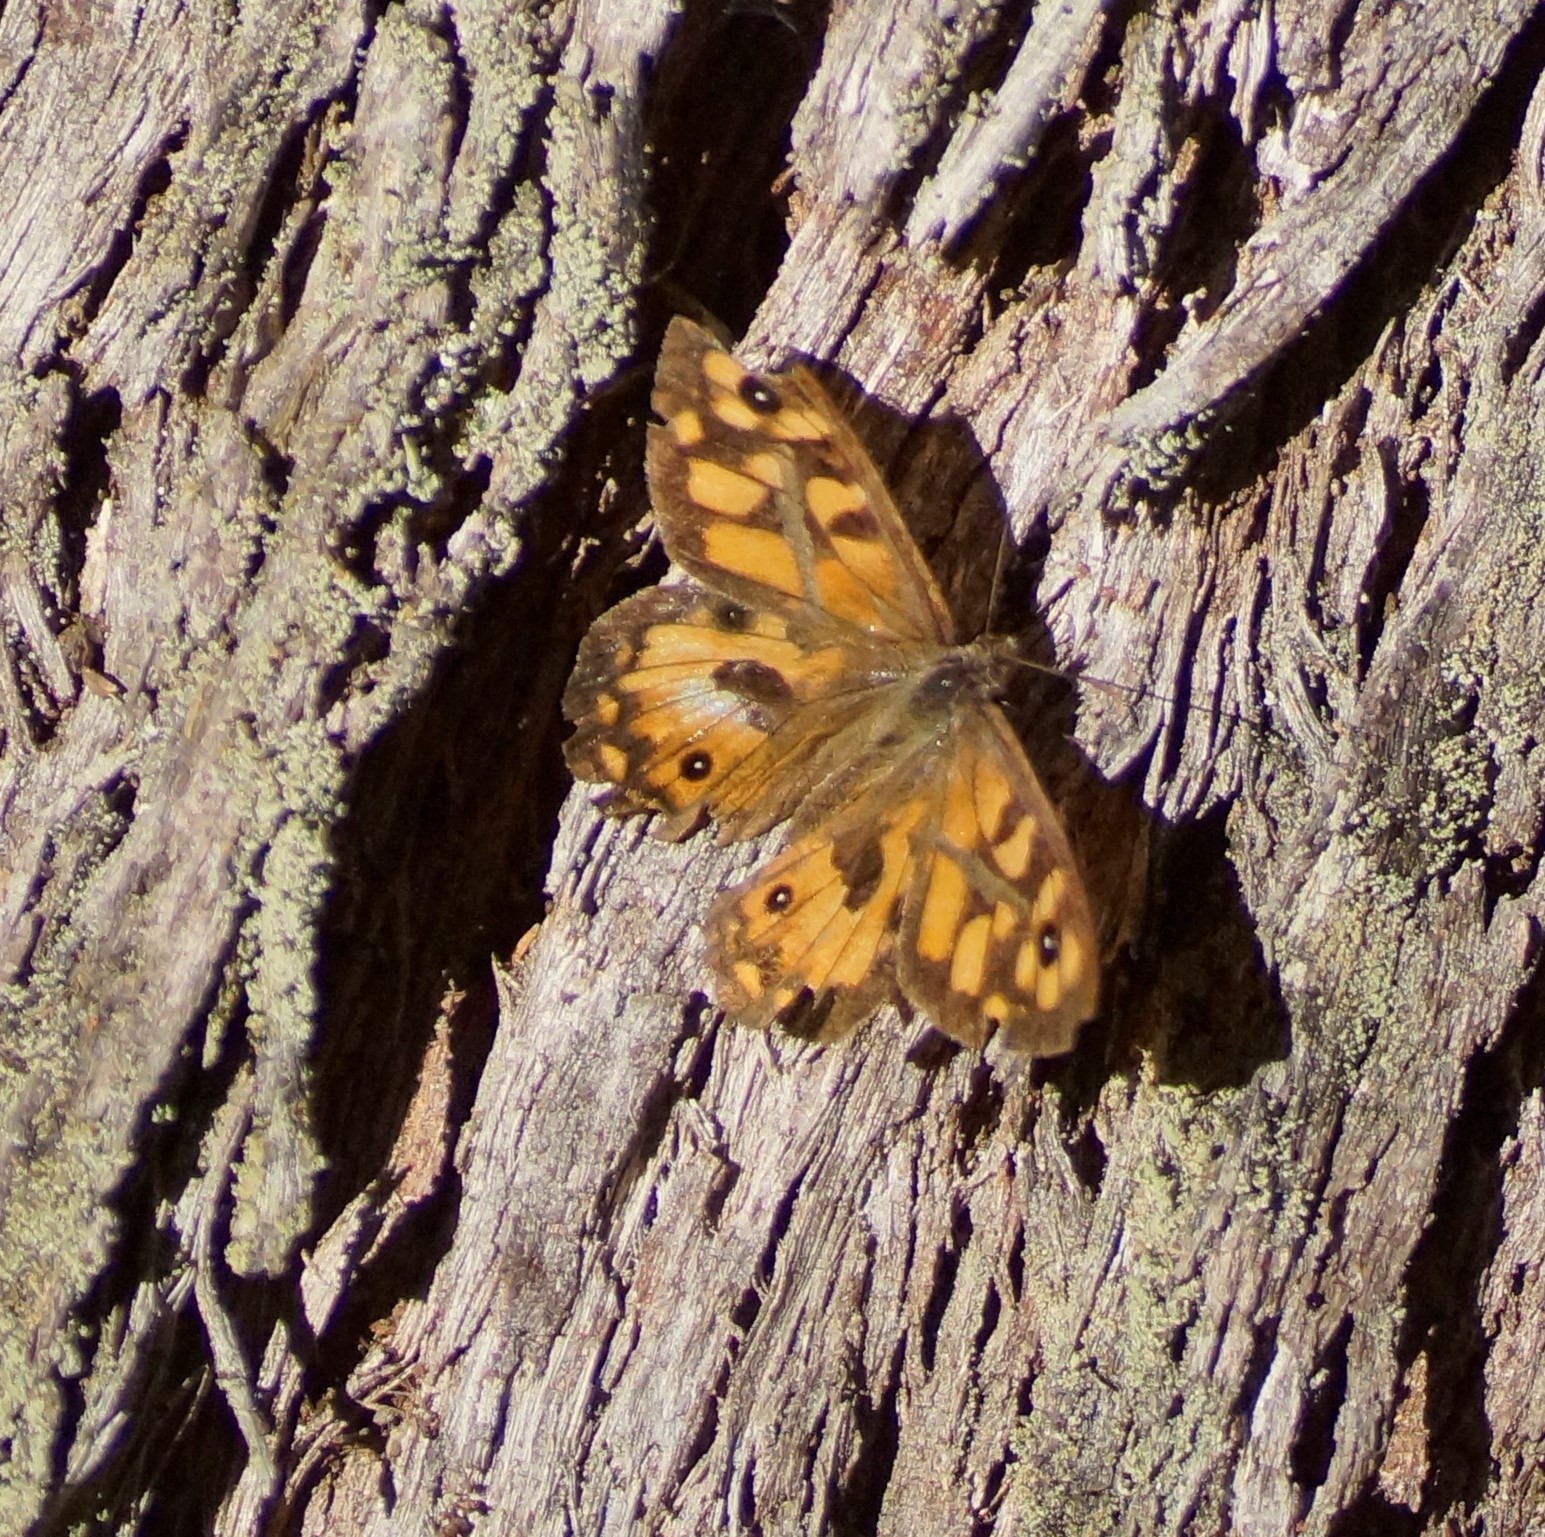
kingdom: Animalia
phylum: Arthropoda
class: Insecta
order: Lepidoptera
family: Nymphalidae
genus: Geitoneura
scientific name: Geitoneura klugii
